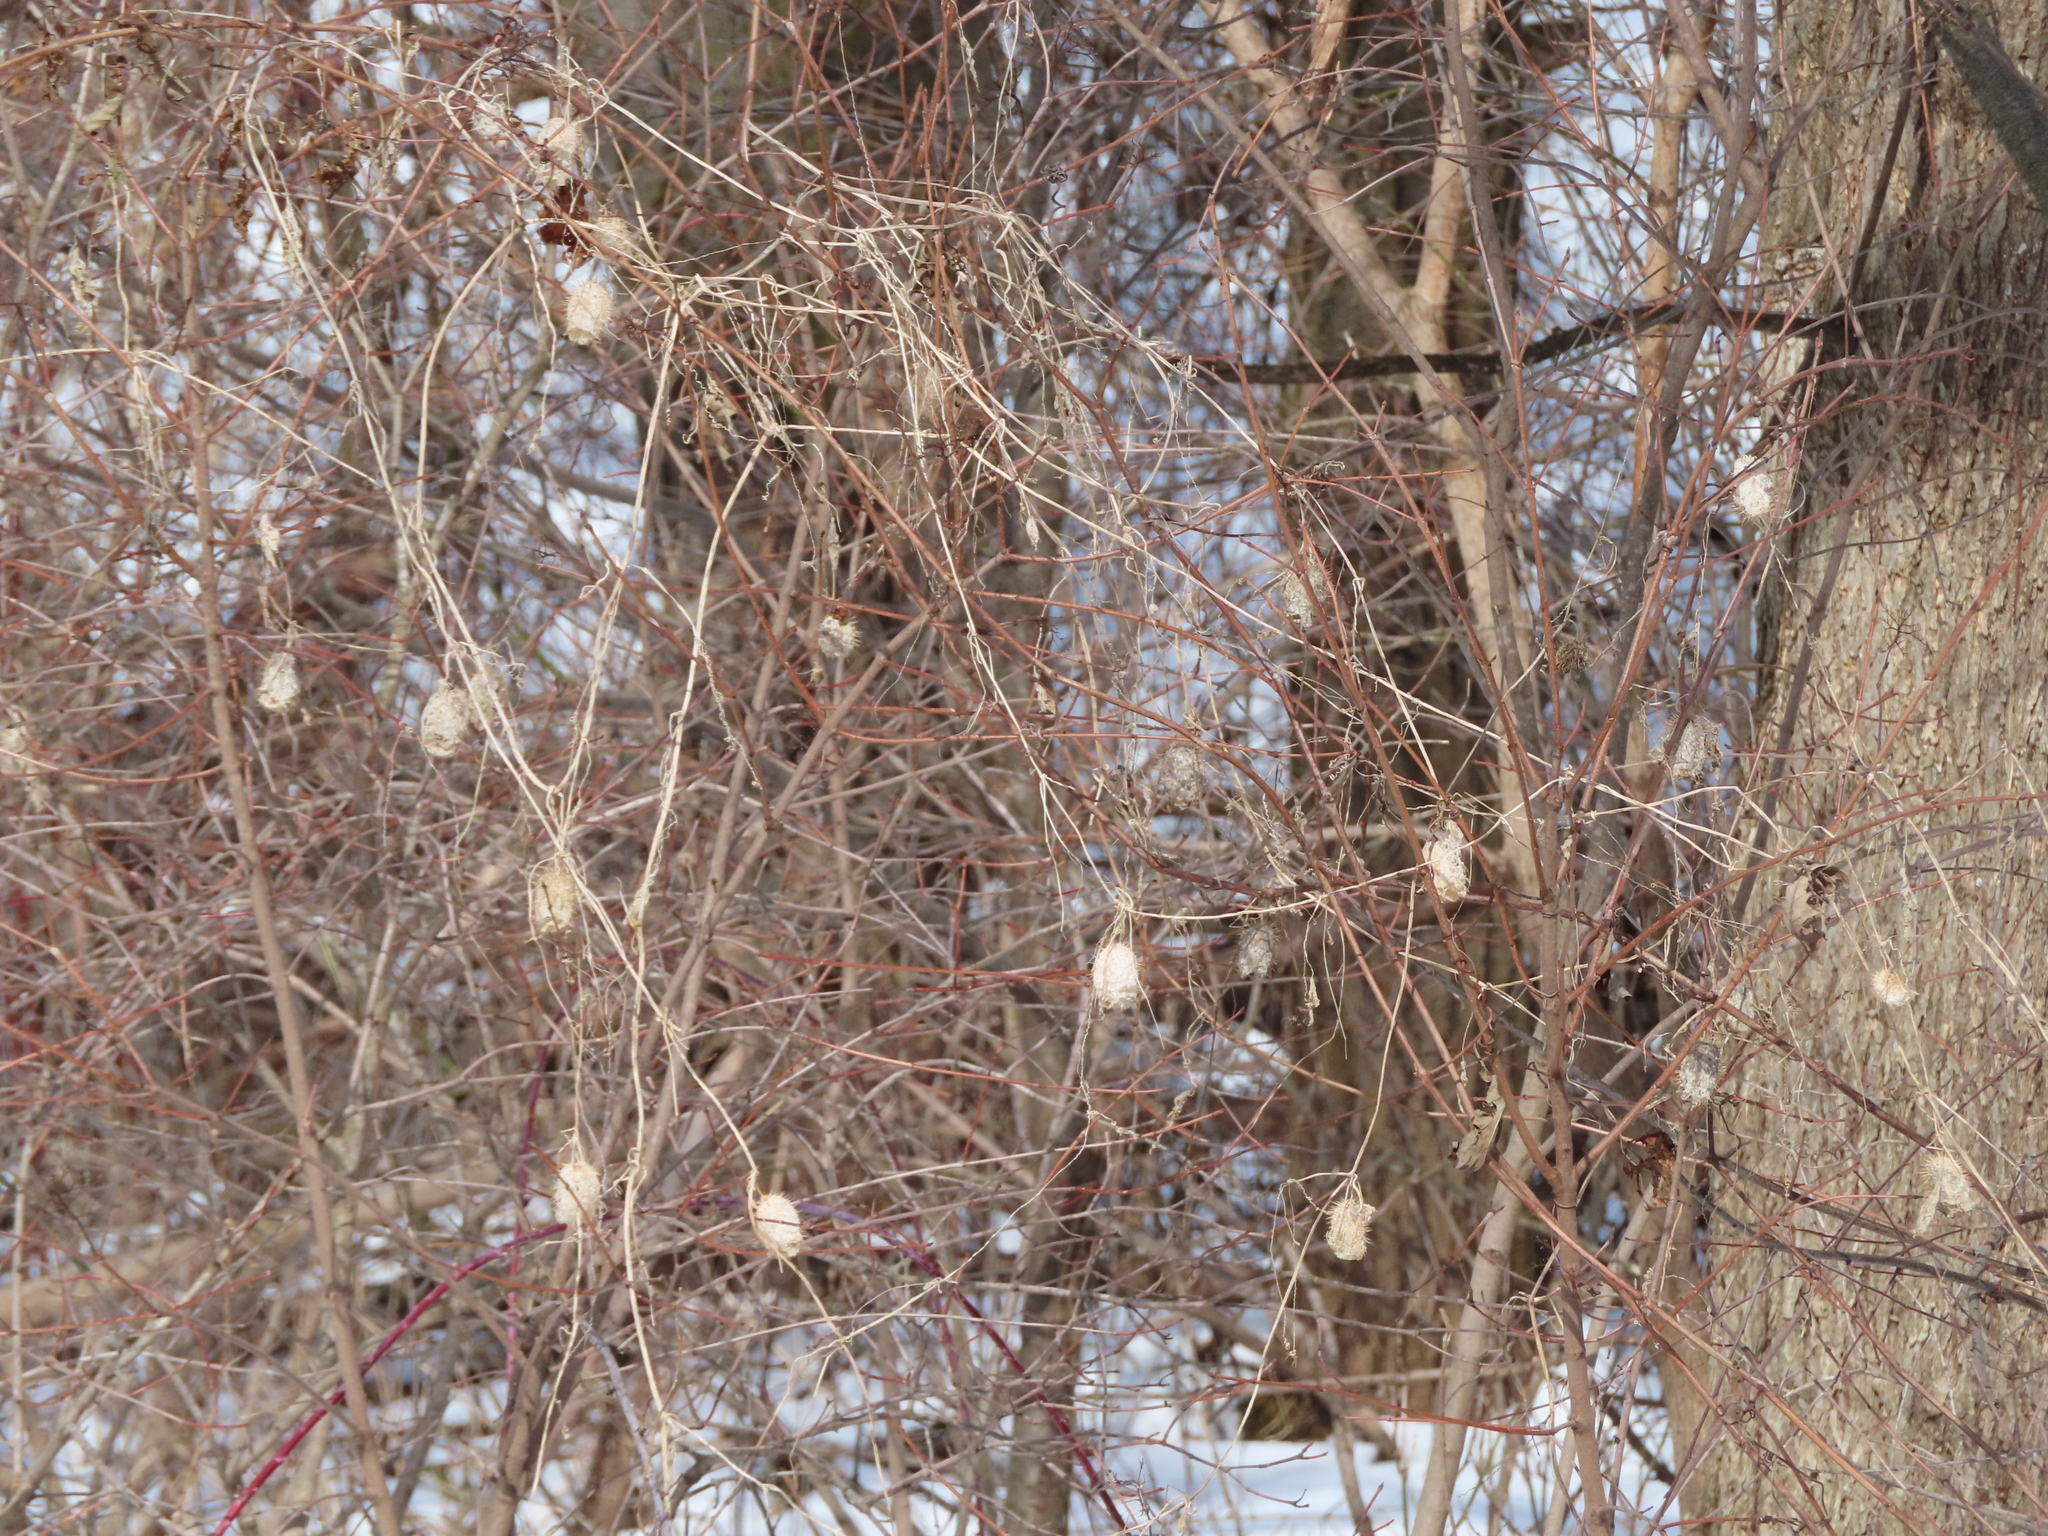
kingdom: Plantae
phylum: Tracheophyta
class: Magnoliopsida
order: Cucurbitales
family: Cucurbitaceae
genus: Echinocystis
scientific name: Echinocystis lobata
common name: Wild cucumber
